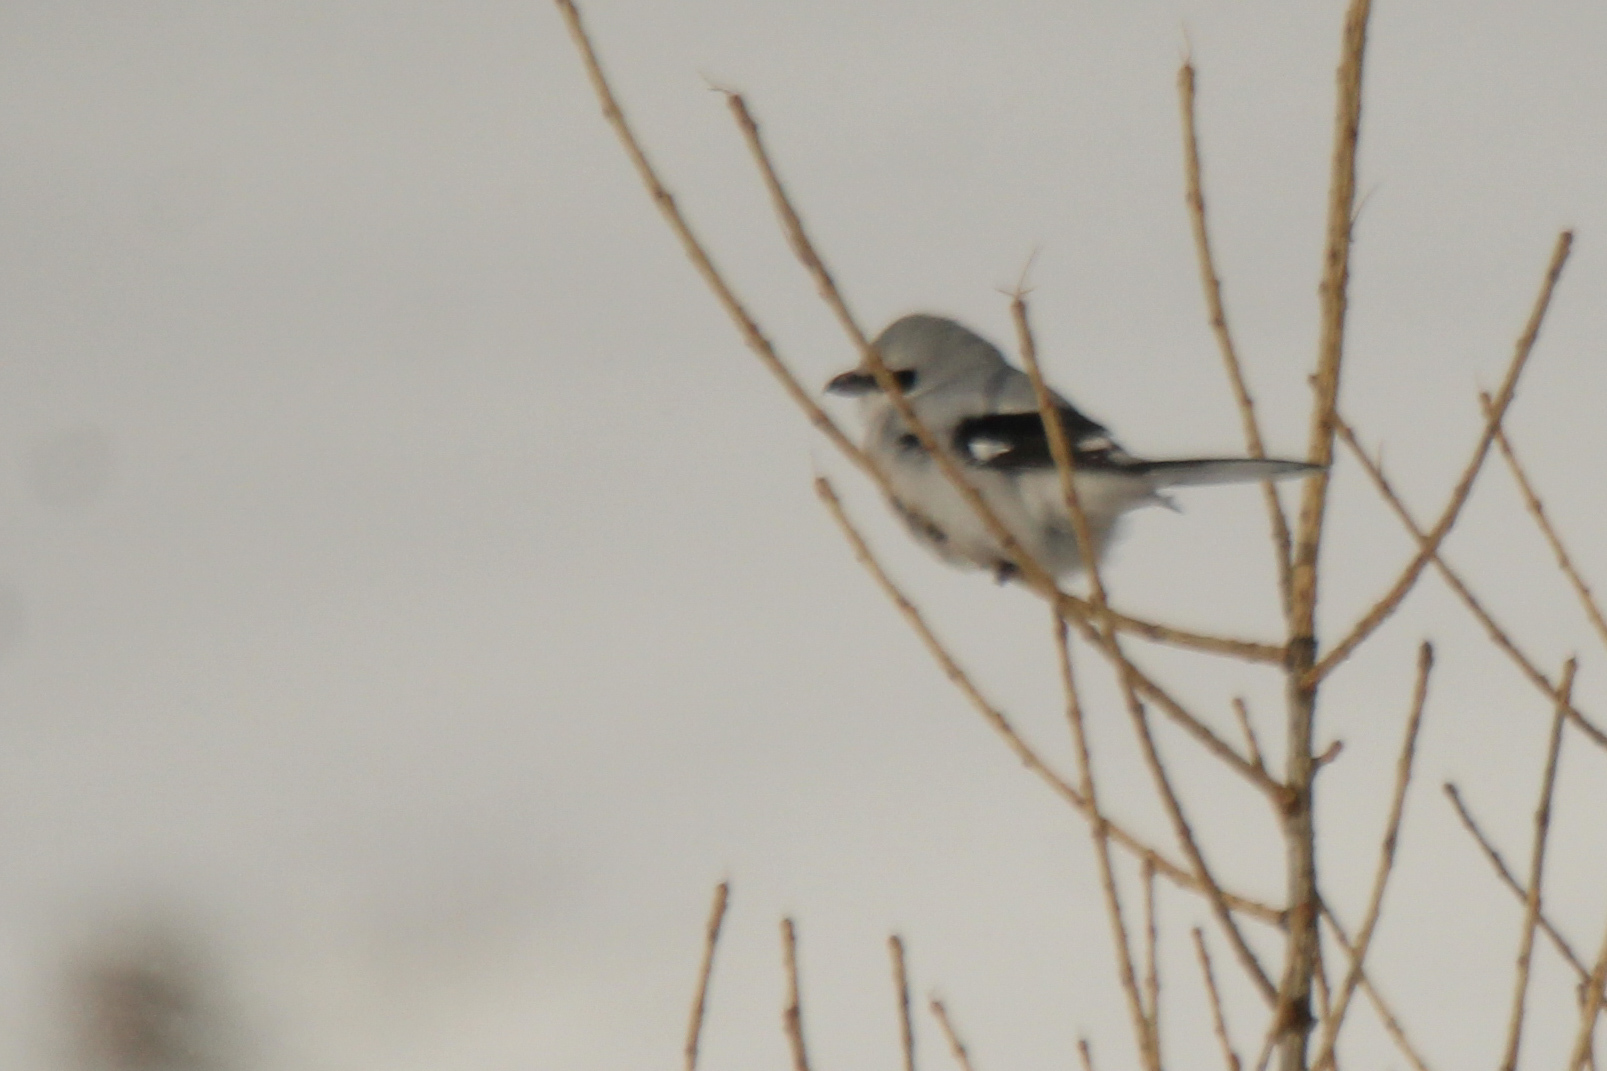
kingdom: Animalia
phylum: Chordata
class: Aves
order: Passeriformes
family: Laniidae
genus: Lanius
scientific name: Lanius borealis
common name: Northern shrike
